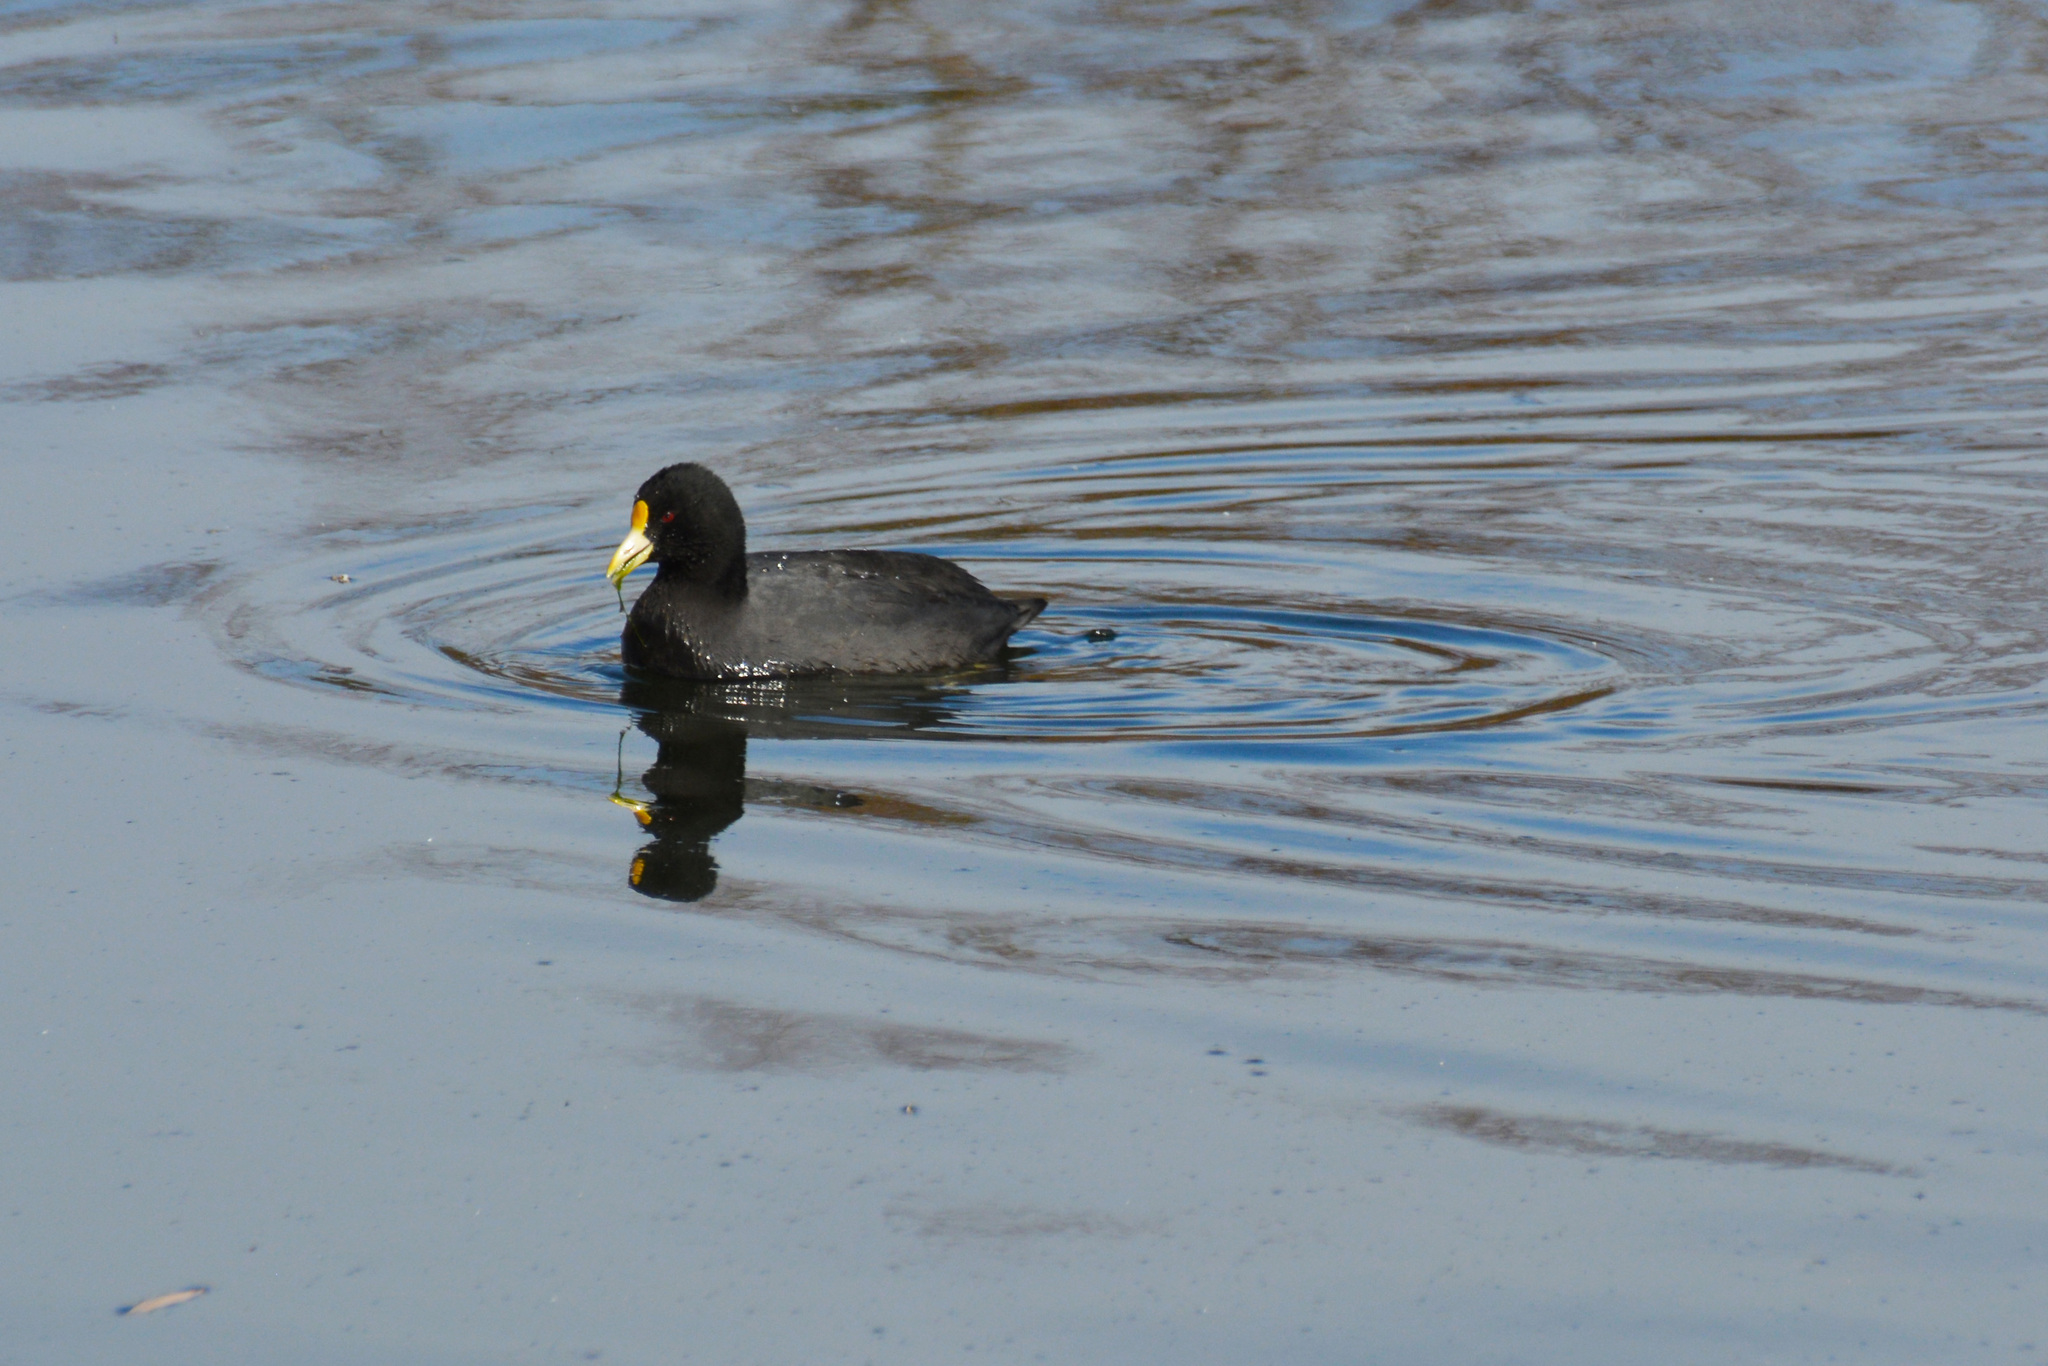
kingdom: Animalia
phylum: Chordata
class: Aves
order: Gruiformes
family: Rallidae
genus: Fulica
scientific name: Fulica leucoptera
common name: White-winged coot
